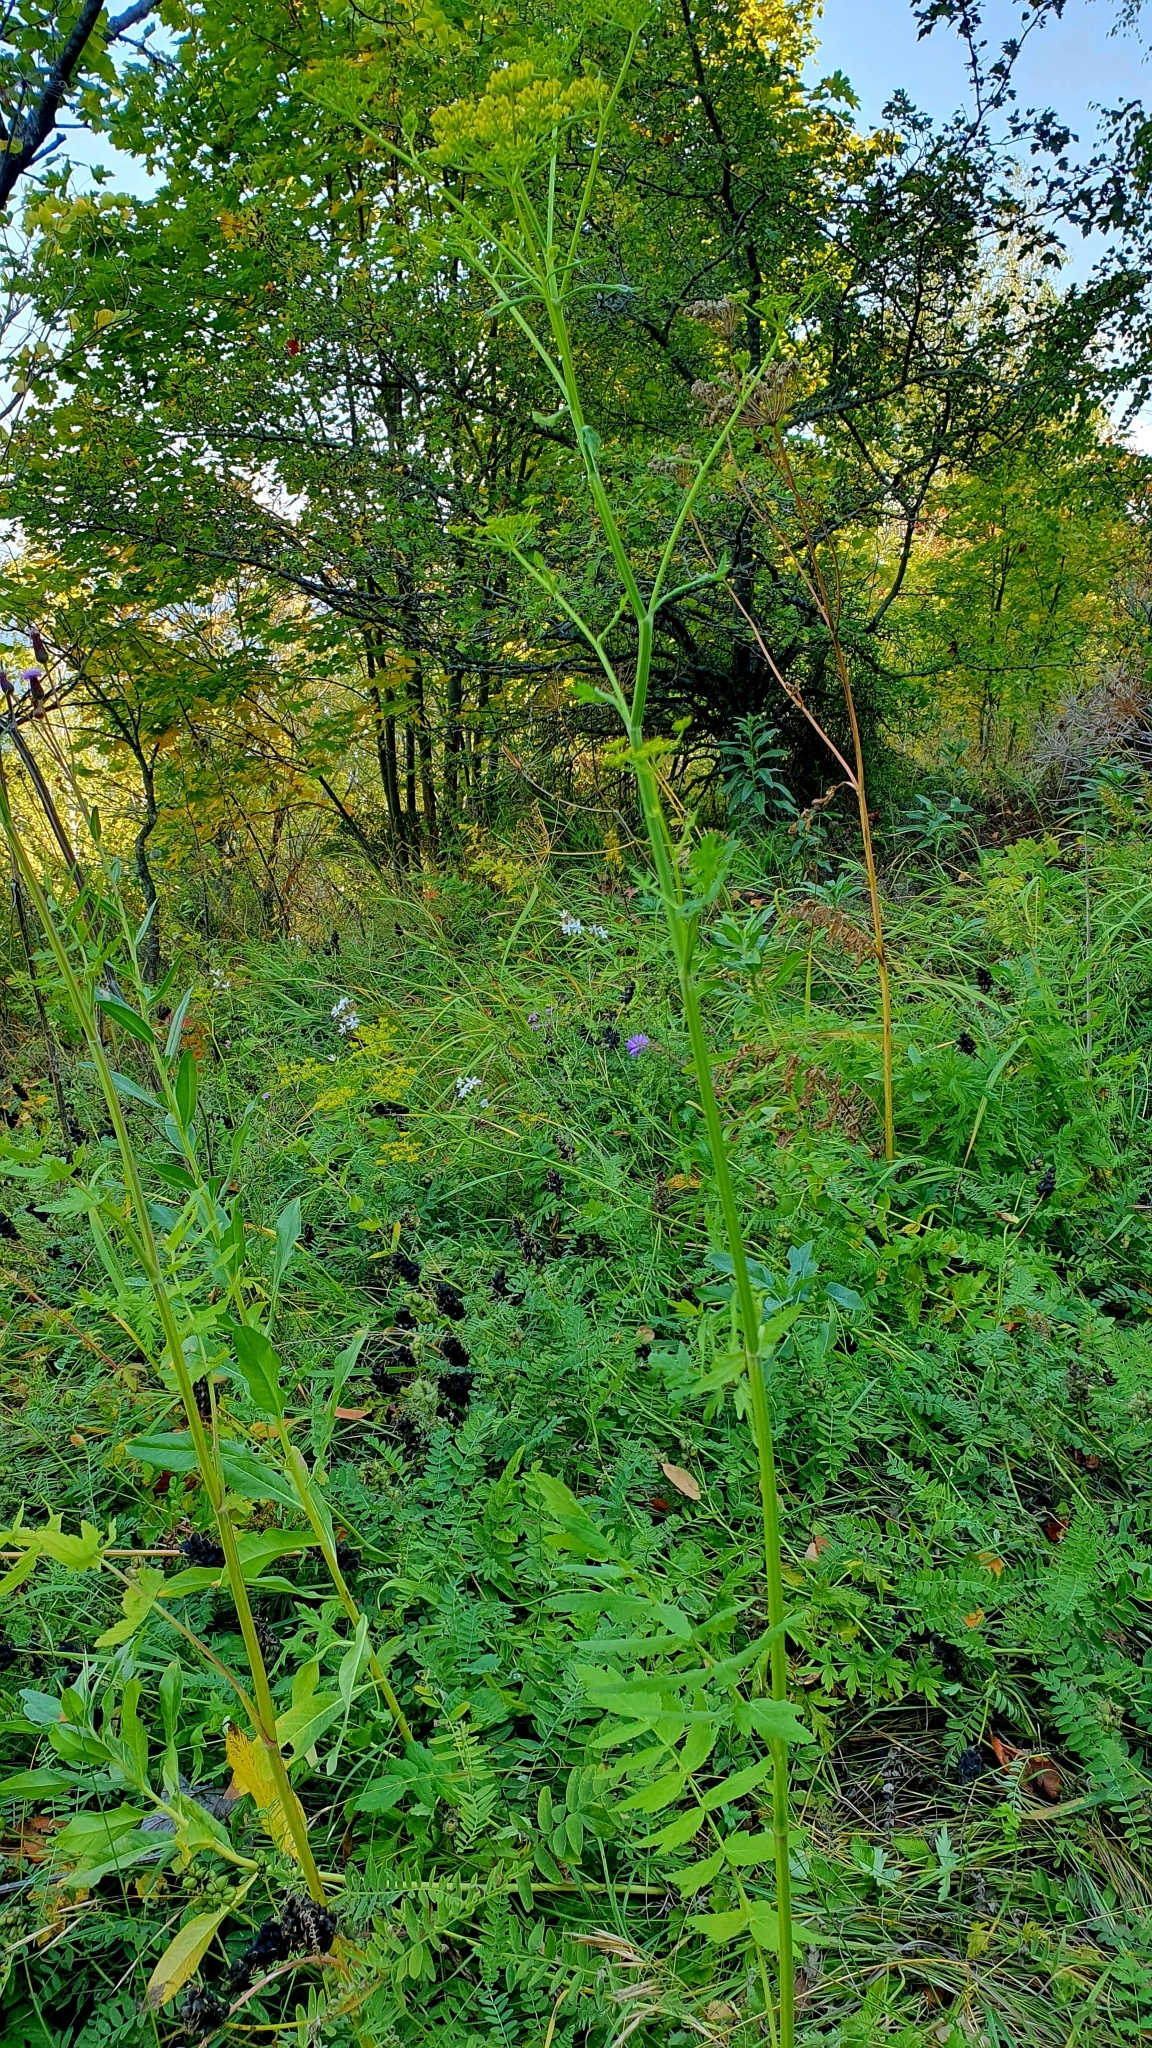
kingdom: Plantae
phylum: Tracheophyta
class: Magnoliopsida
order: Apiales
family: Apiaceae
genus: Pastinaca
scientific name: Pastinaca sativa
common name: Wild parsnip
